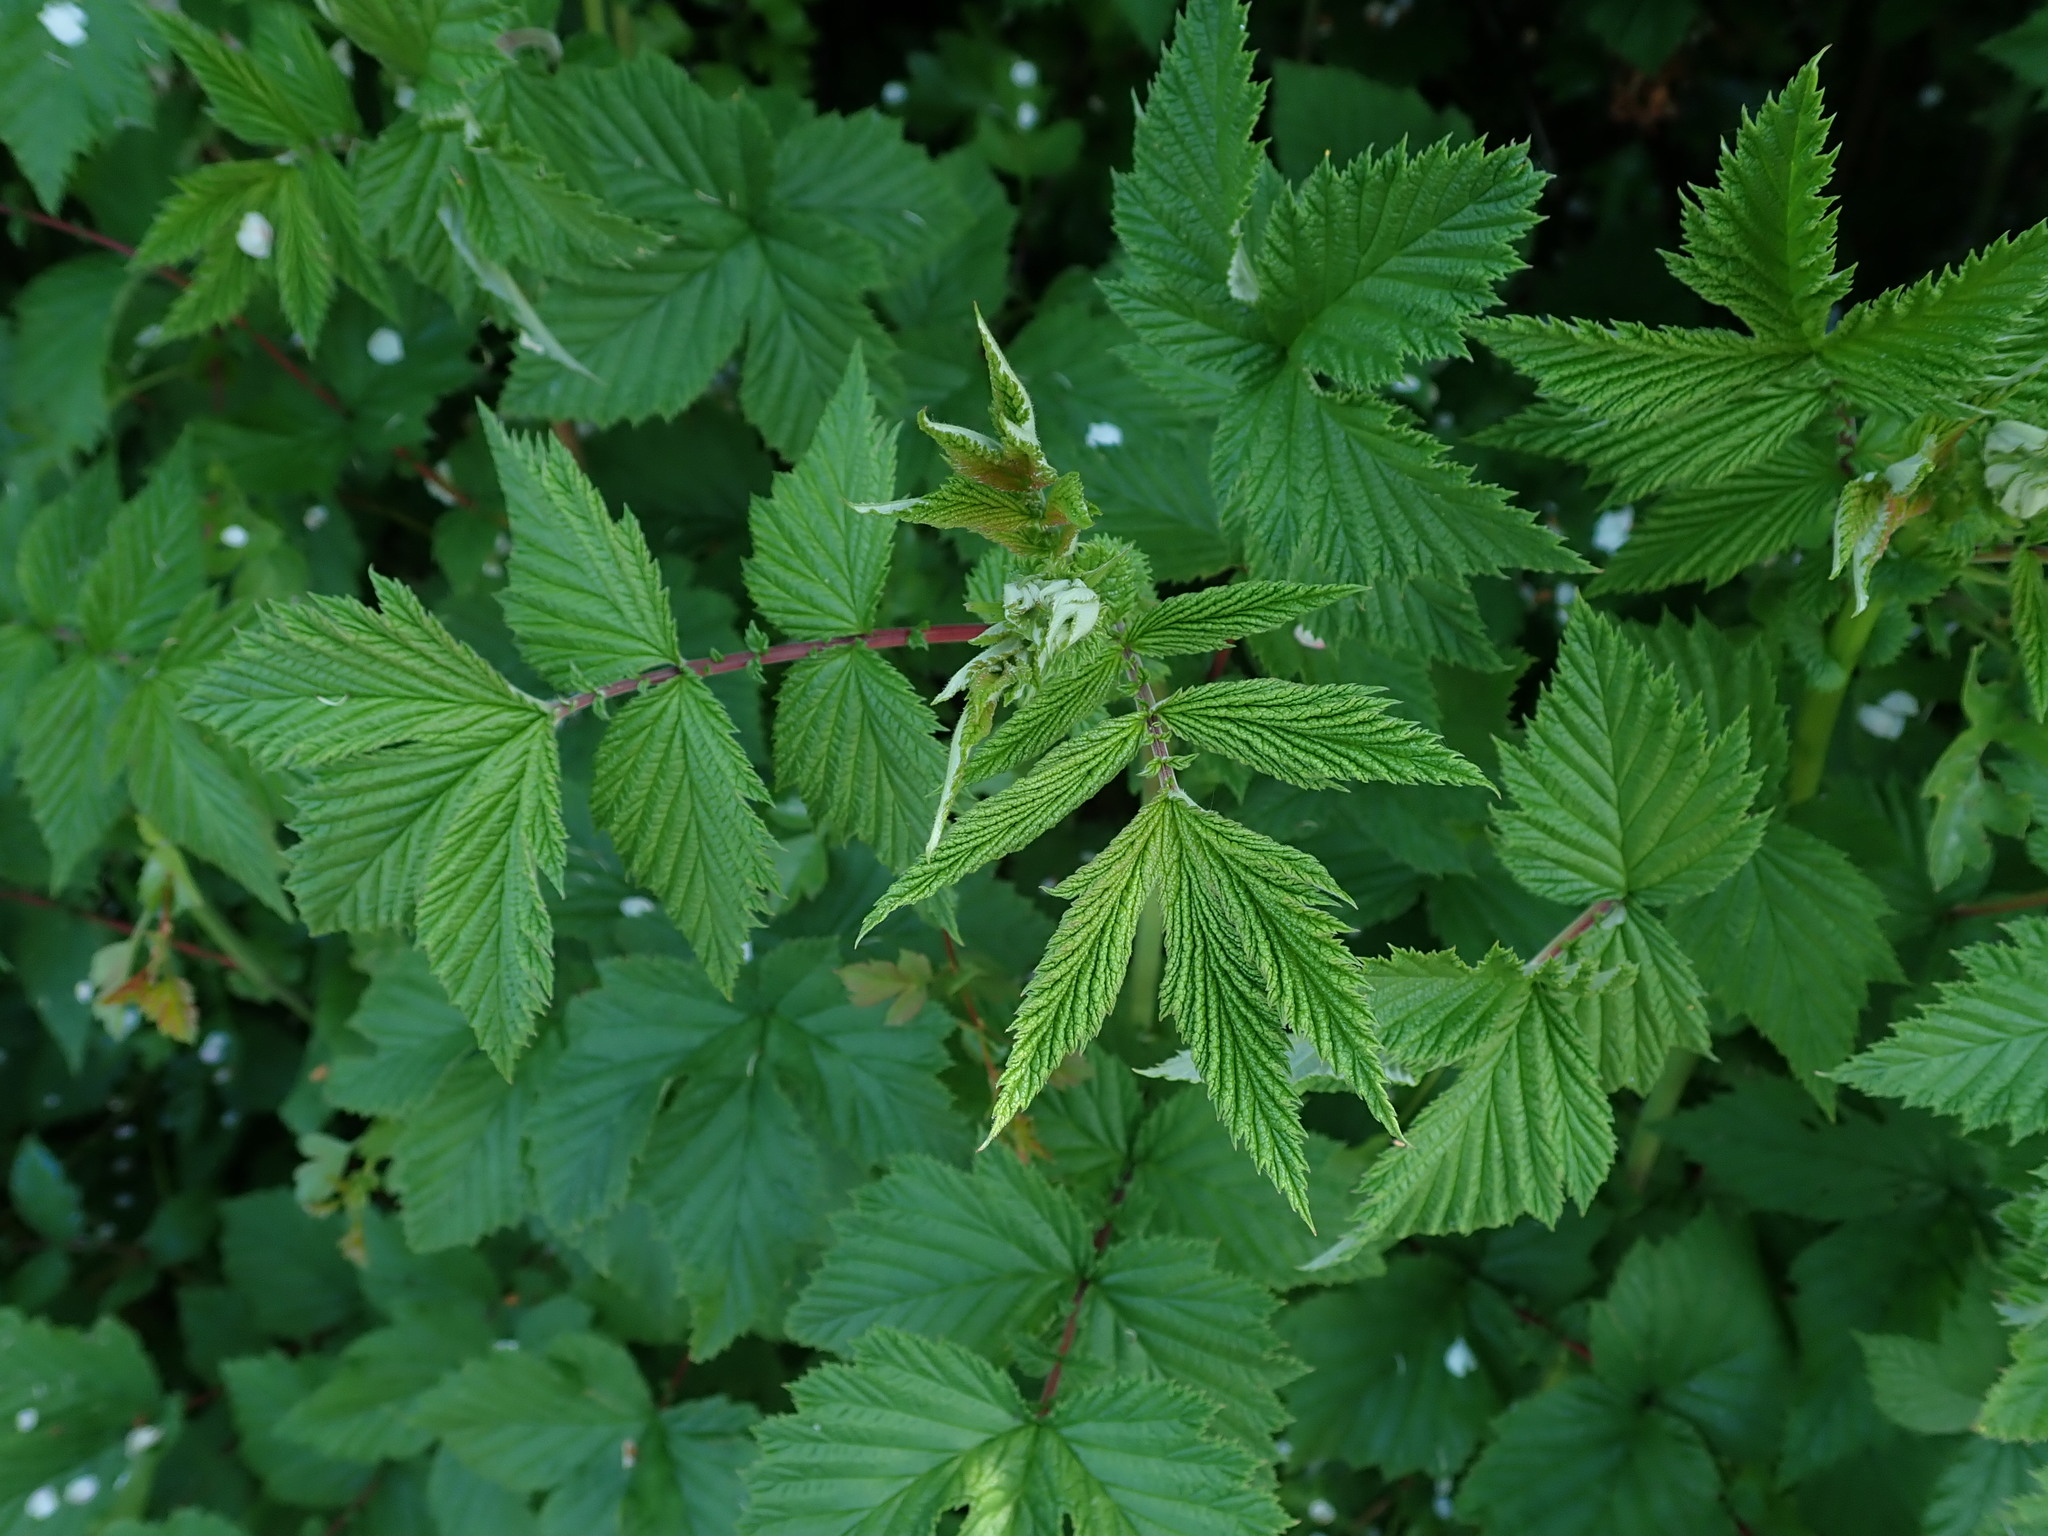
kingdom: Plantae
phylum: Tracheophyta
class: Magnoliopsida
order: Rosales
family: Rosaceae
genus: Filipendula
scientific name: Filipendula ulmaria
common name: Meadowsweet
